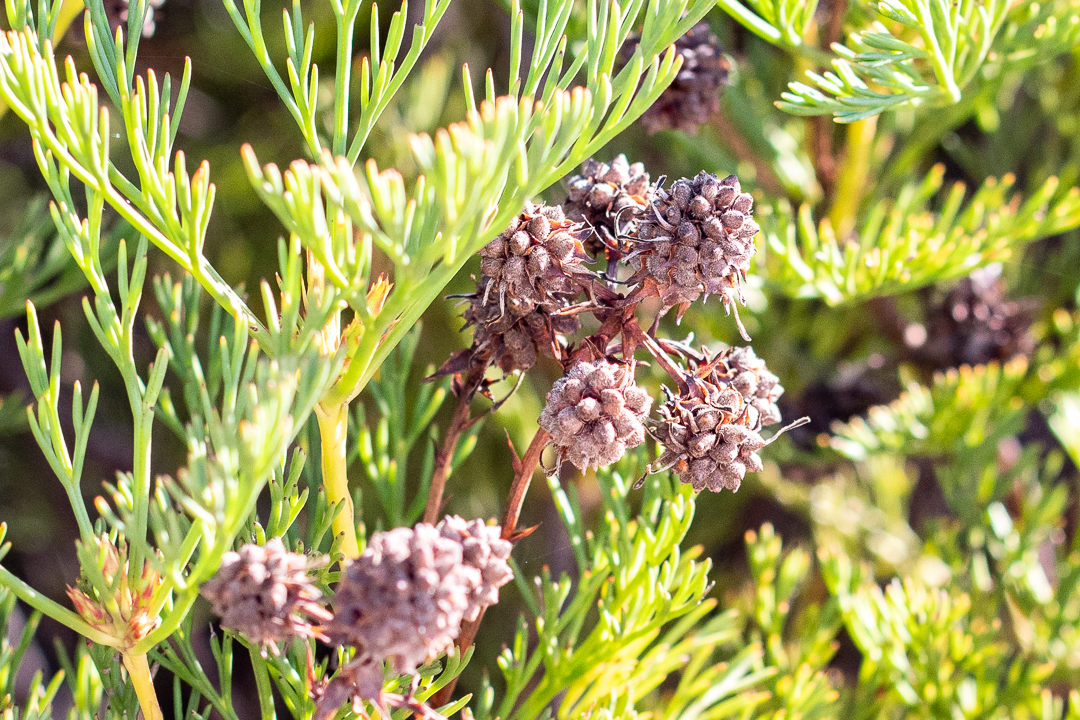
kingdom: Plantae
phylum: Tracheophyta
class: Magnoliopsida
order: Proteales
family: Proteaceae
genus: Serruria
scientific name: Serruria elongata
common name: Long-stalk spiderhead
